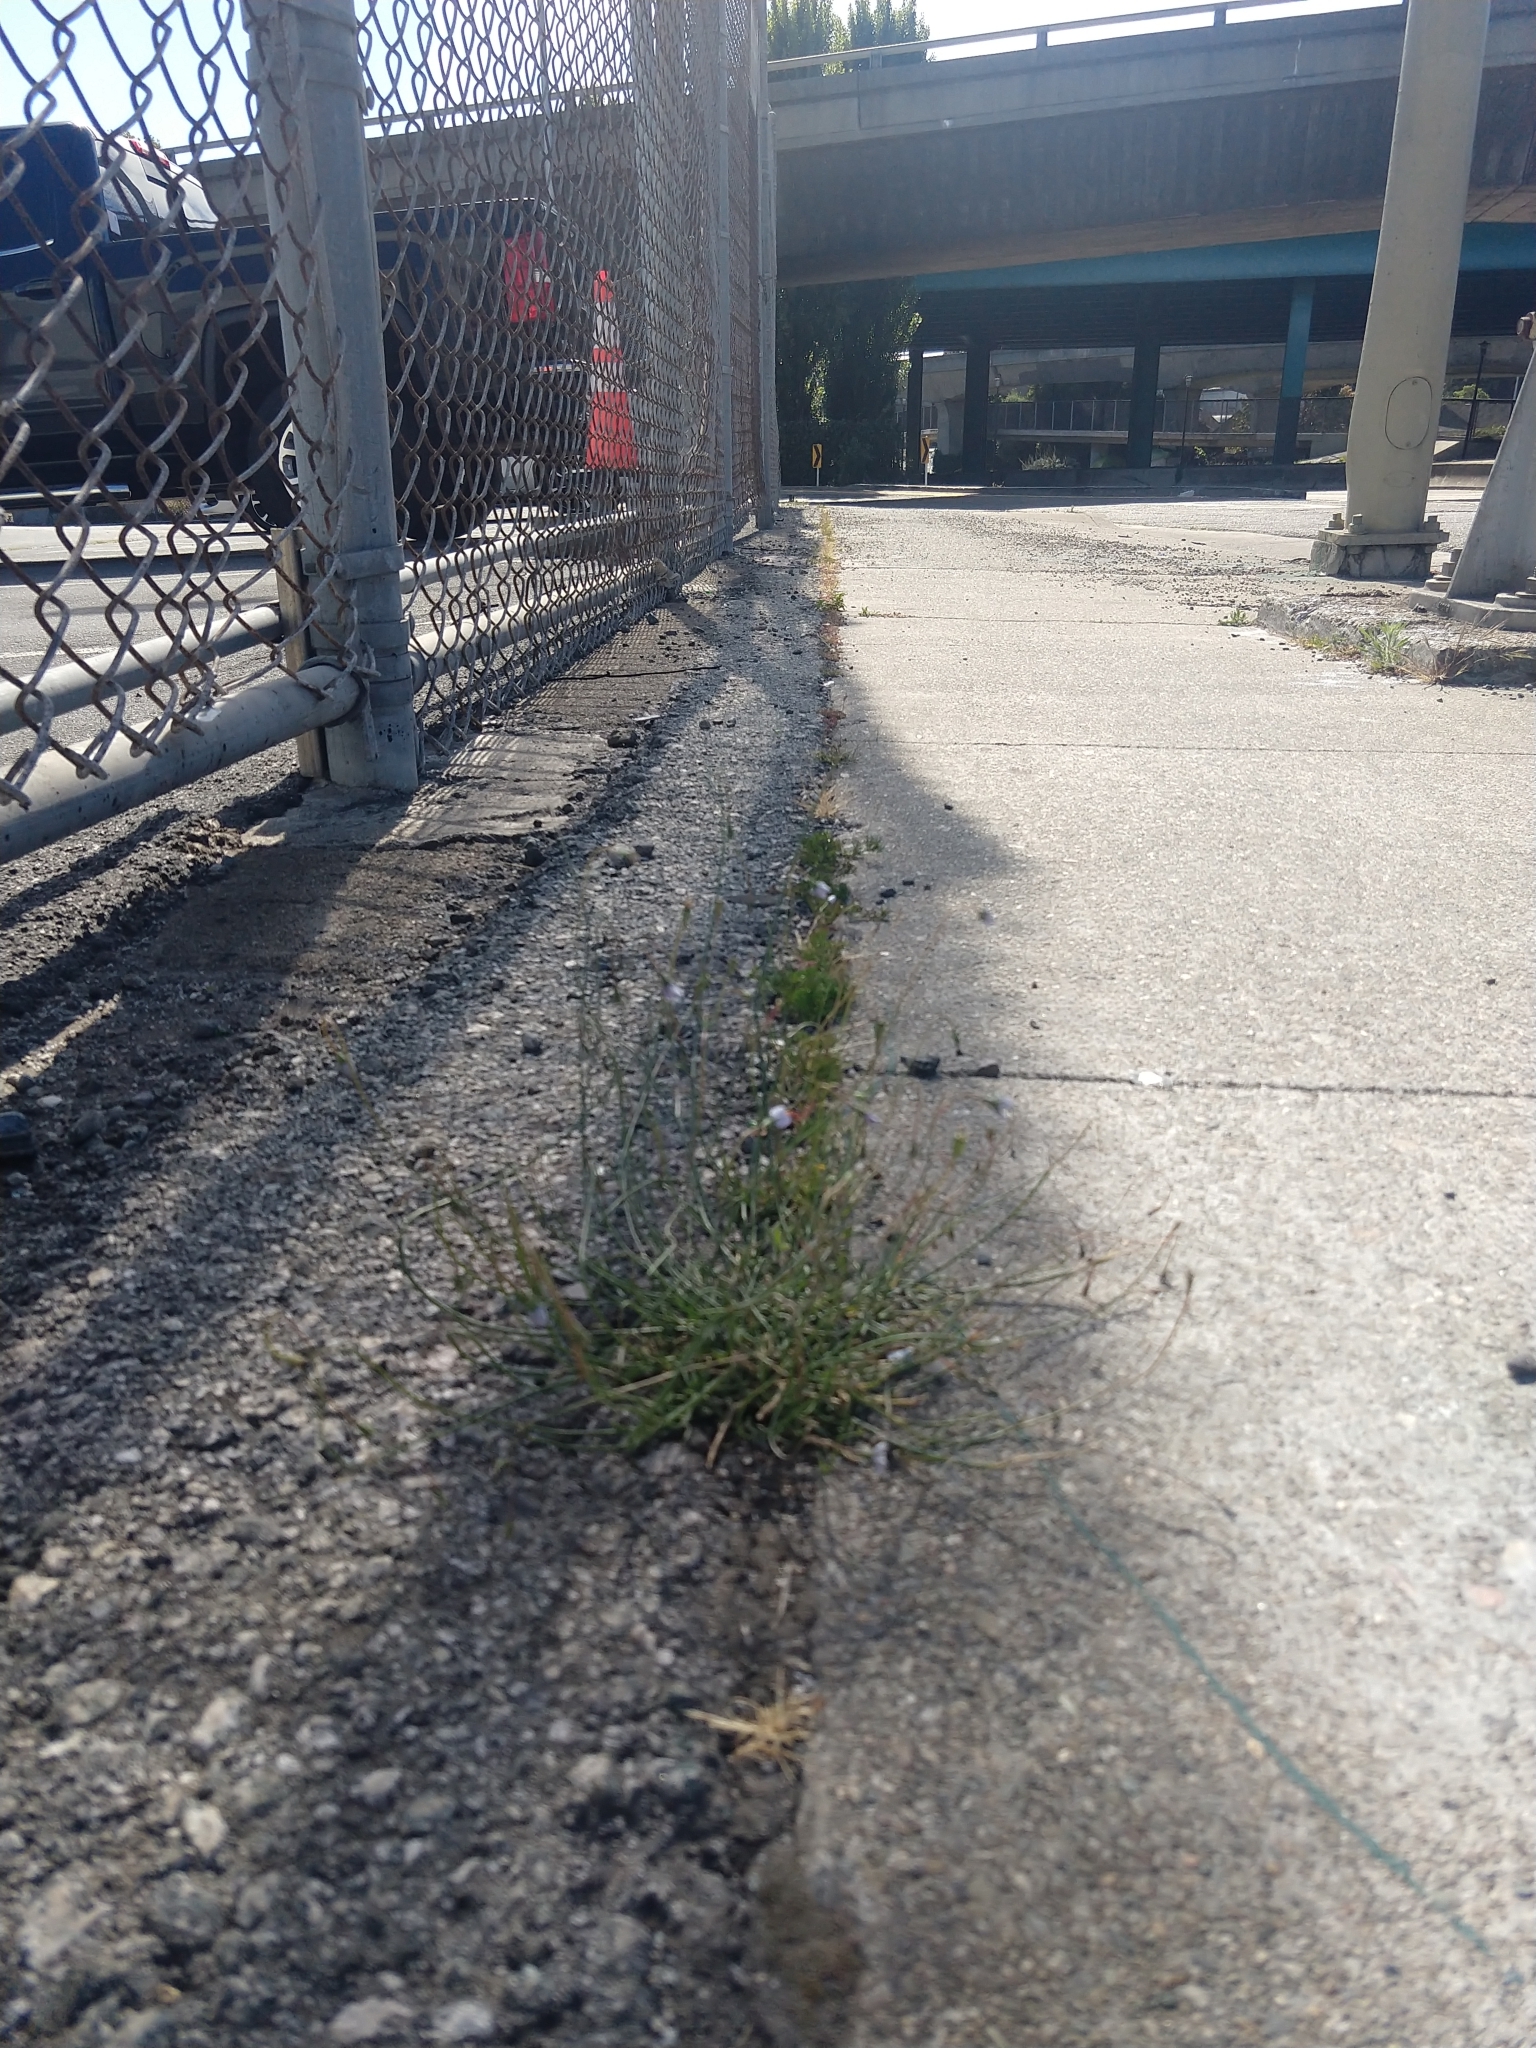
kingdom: Plantae
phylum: Tracheophyta
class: Magnoliopsida
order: Asterales
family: Campanulaceae
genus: Wahlenbergia
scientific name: Wahlenbergia marginata
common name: Southern rockbell
